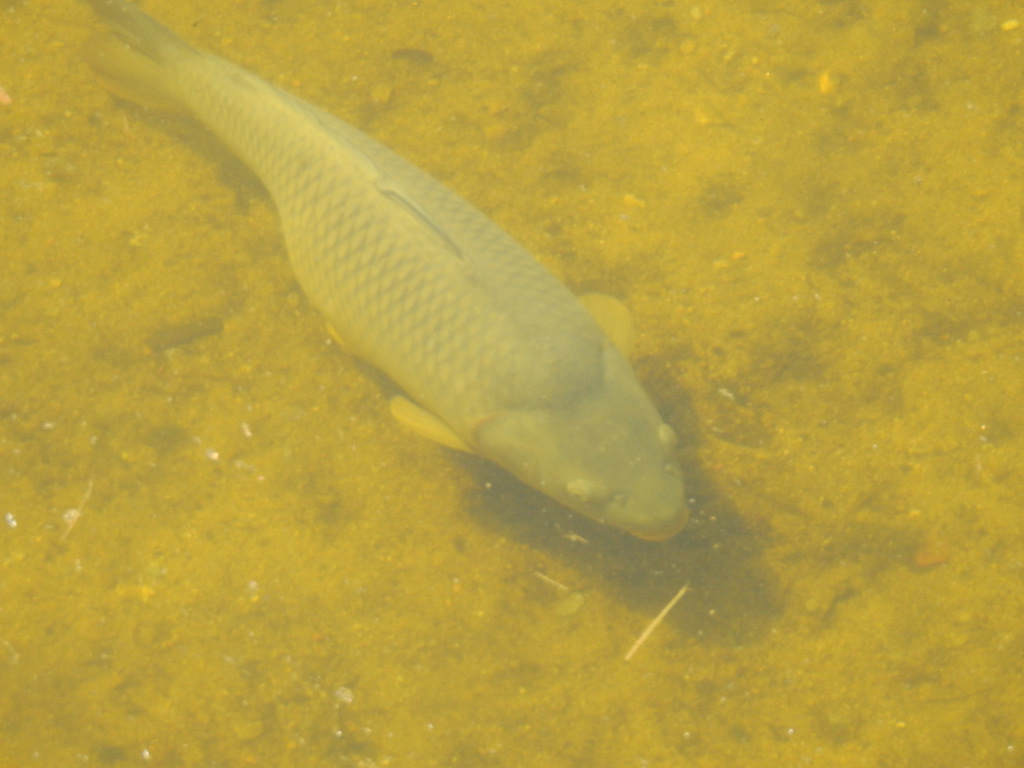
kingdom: Animalia
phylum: Chordata
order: Cypriniformes
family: Cyprinidae
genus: Cyprinus
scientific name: Cyprinus carpio
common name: Common carp
